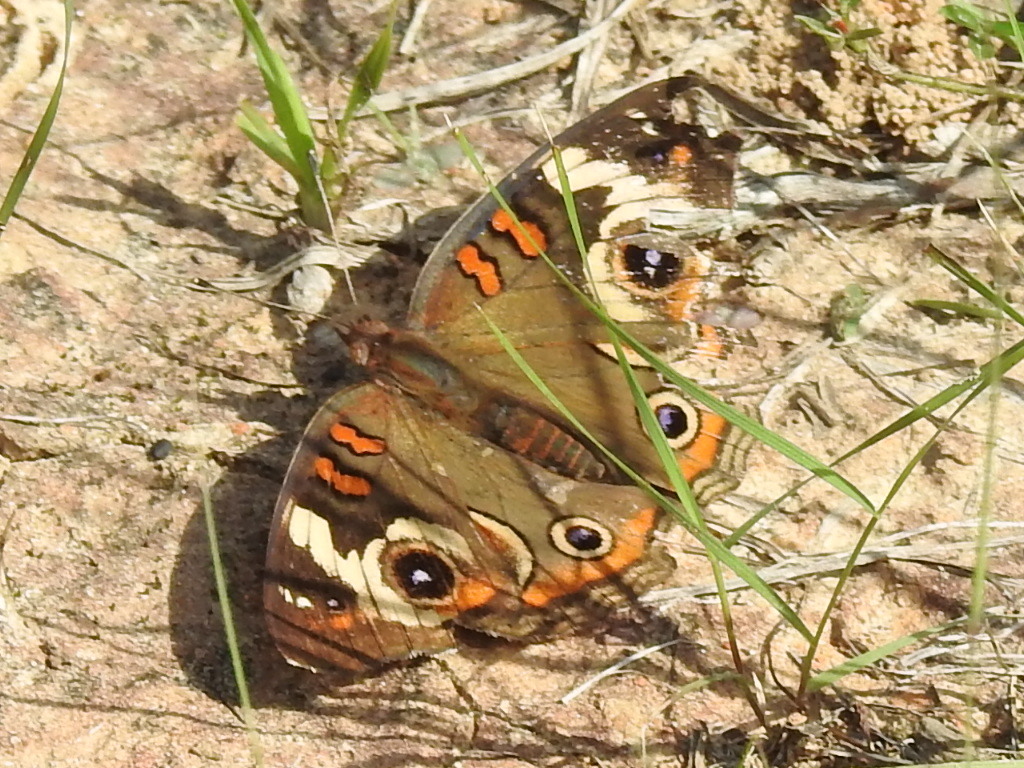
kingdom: Animalia
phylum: Arthropoda
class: Insecta
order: Lepidoptera
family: Nymphalidae
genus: Junonia
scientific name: Junonia coenia
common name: Common buckeye
